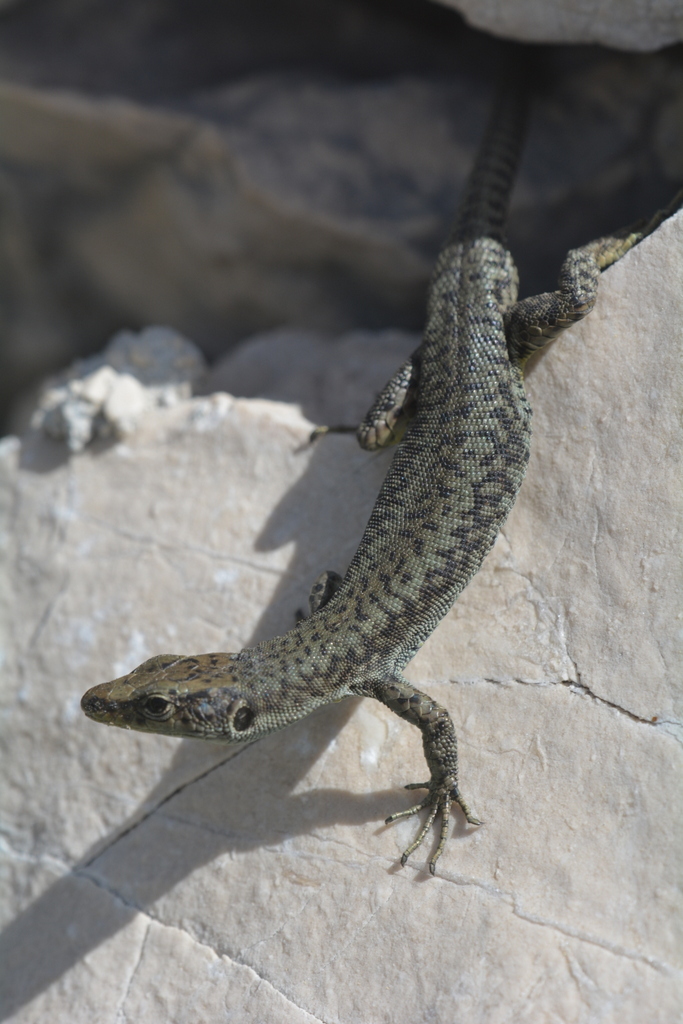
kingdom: Animalia
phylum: Chordata
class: Squamata
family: Lacertidae
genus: Dinarolacerta
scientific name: Dinarolacerta mosorensis
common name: Mosor rock lizard
